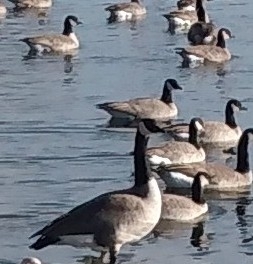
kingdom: Animalia
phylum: Chordata
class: Aves
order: Anseriformes
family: Anatidae
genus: Branta
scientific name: Branta canadensis
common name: Canada goose
